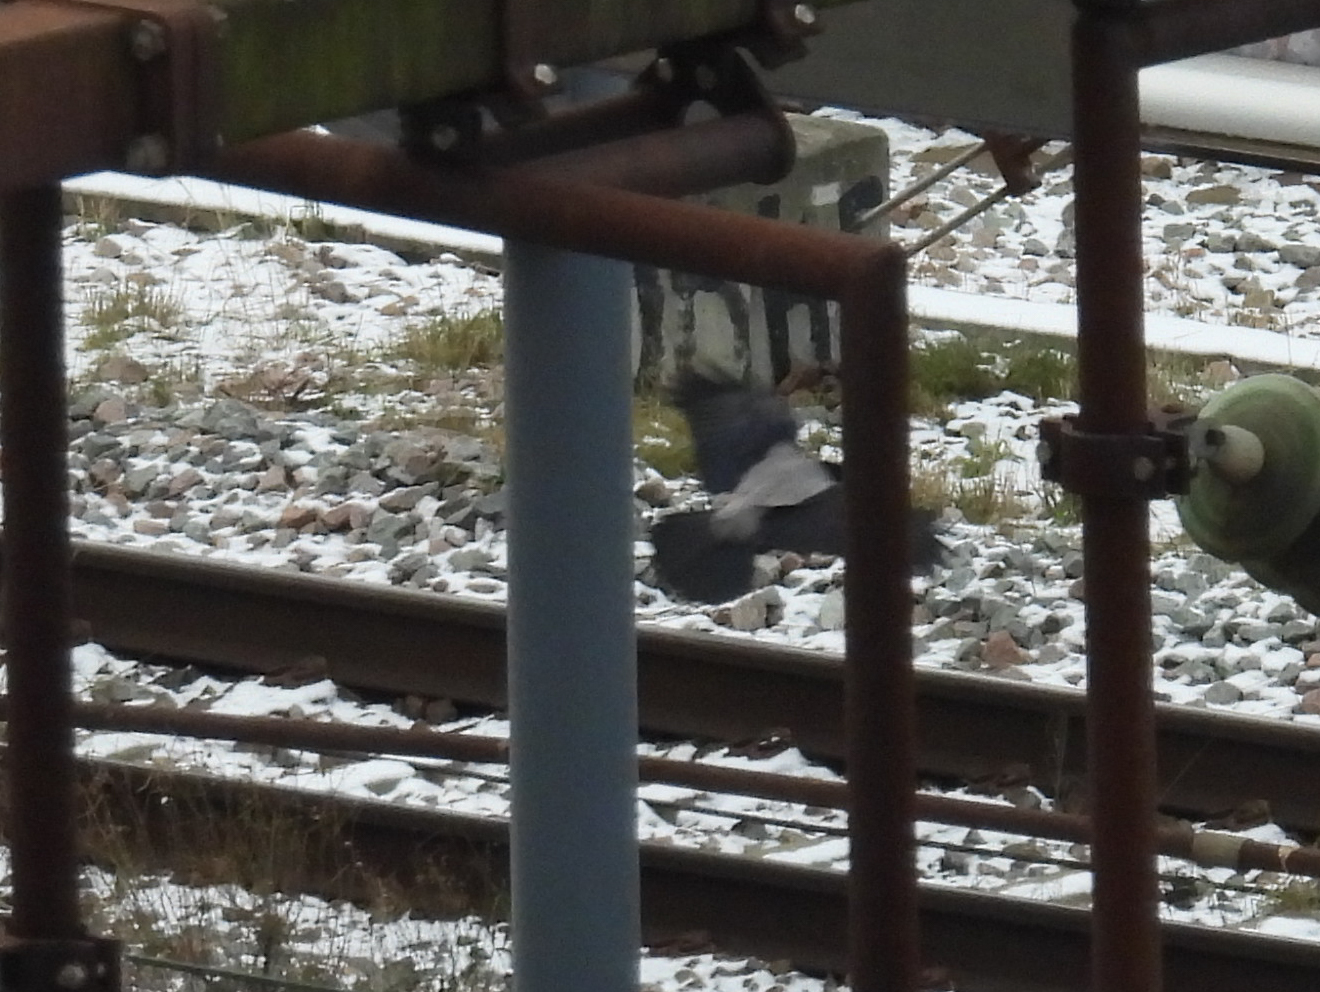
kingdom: Animalia
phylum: Chordata
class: Aves
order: Passeriformes
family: Corvidae
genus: Corvus
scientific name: Corvus cornix
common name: Hooded crow
